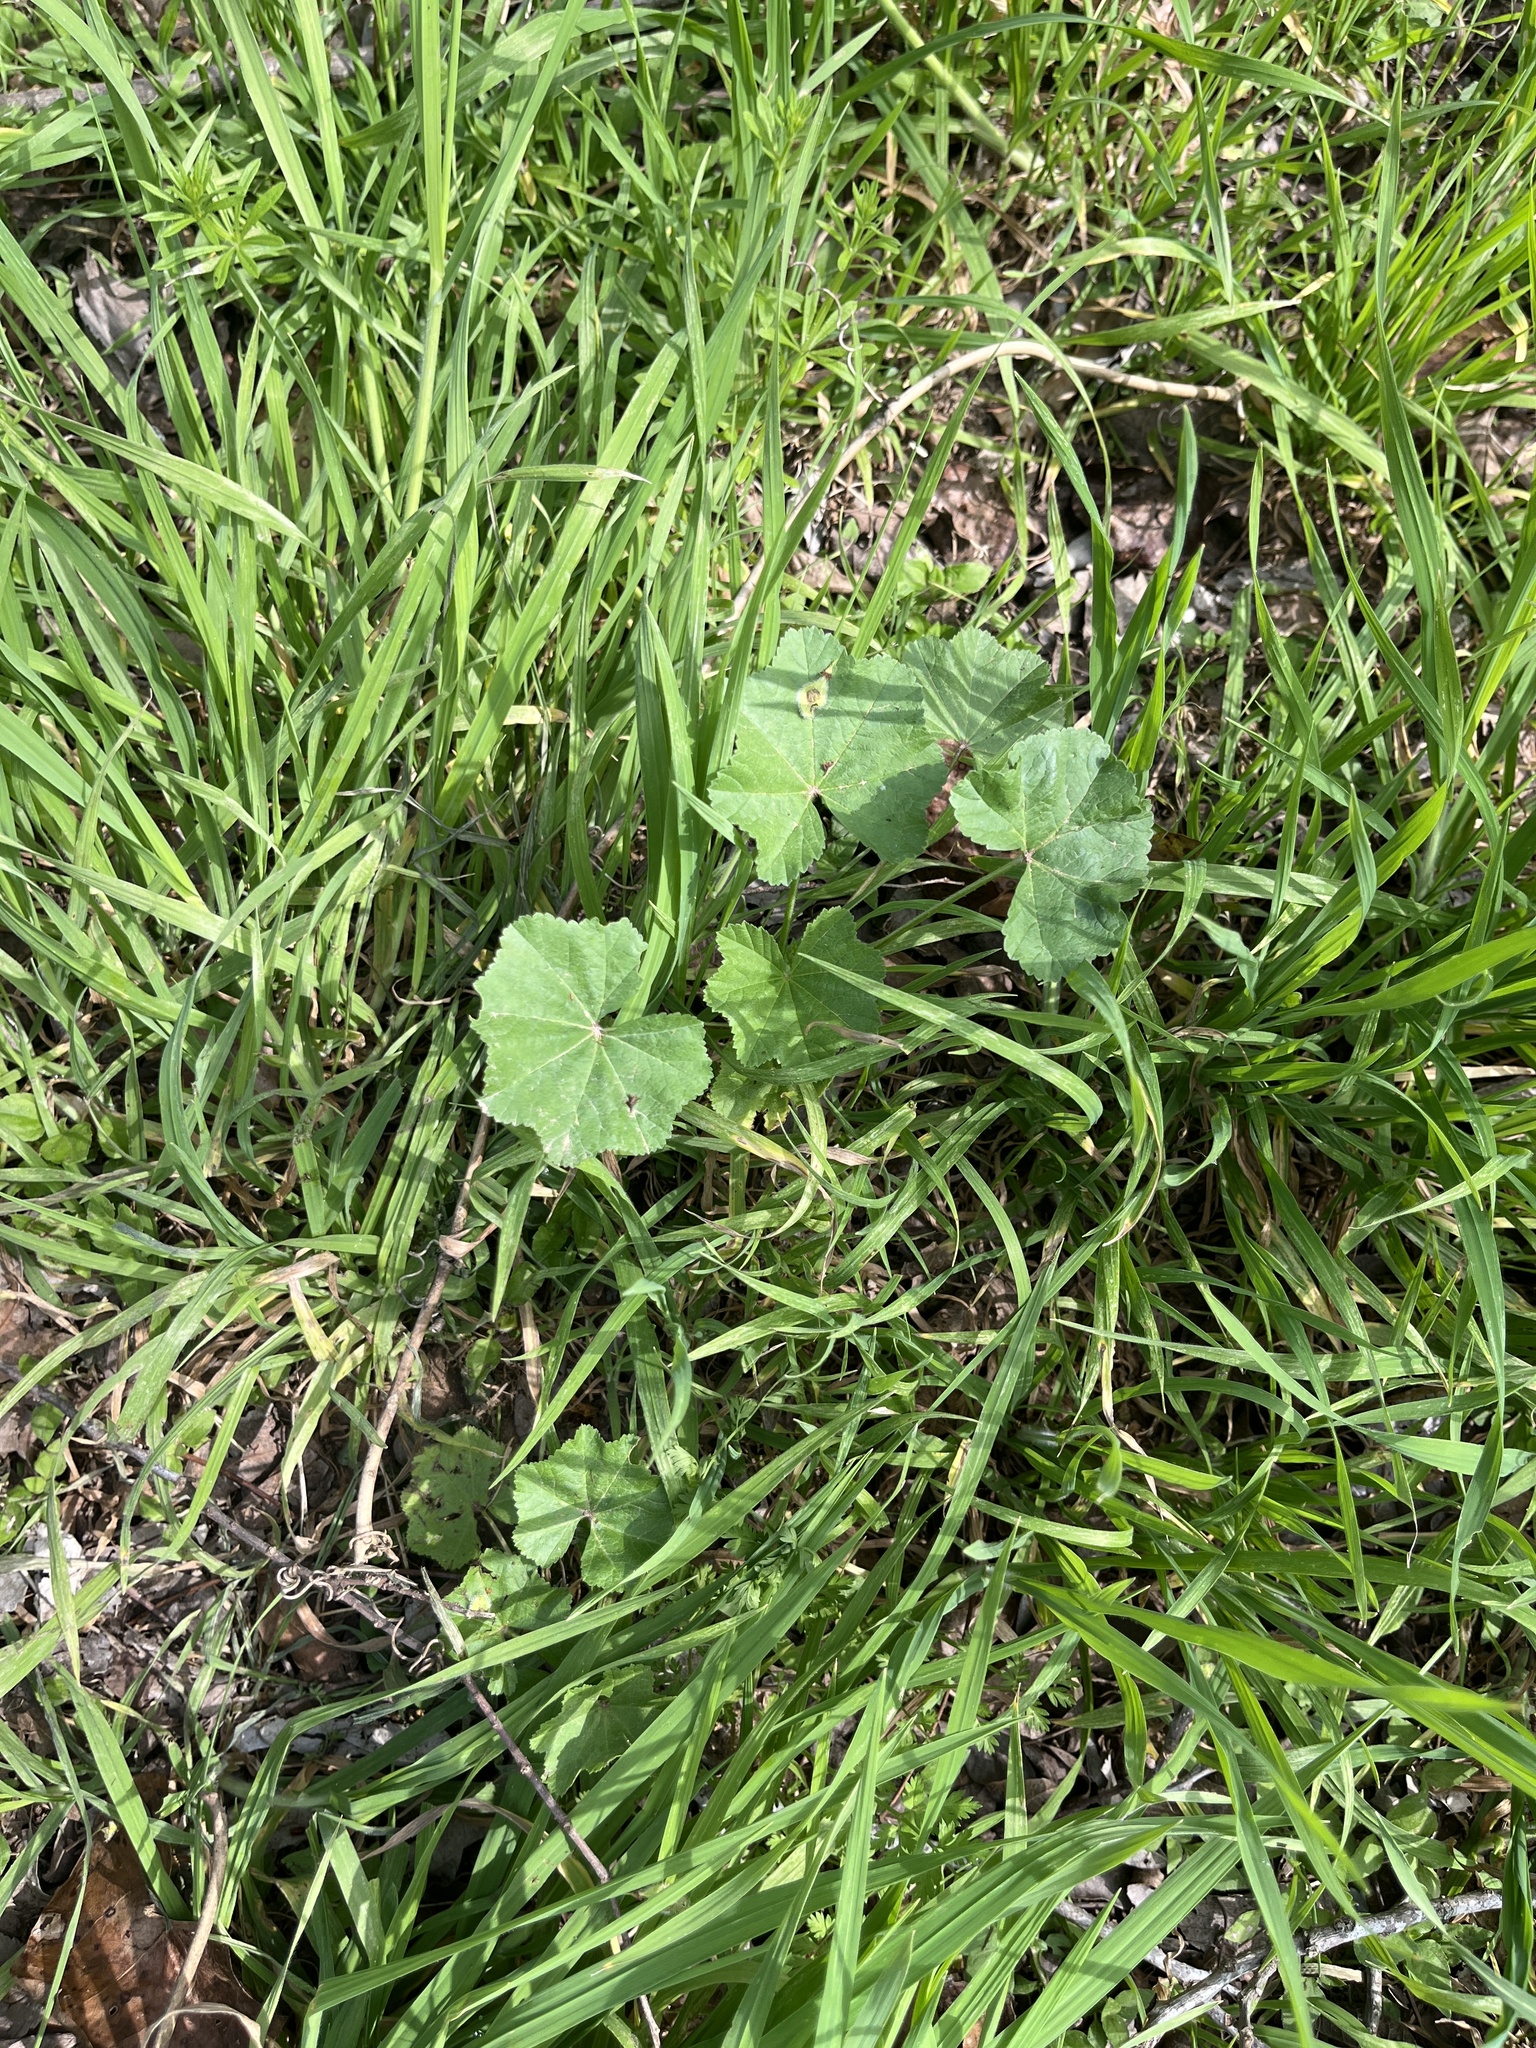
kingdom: Plantae
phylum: Tracheophyta
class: Magnoliopsida
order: Malvales
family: Malvaceae
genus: Malva
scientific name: Malva parviflora
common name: Least mallow
